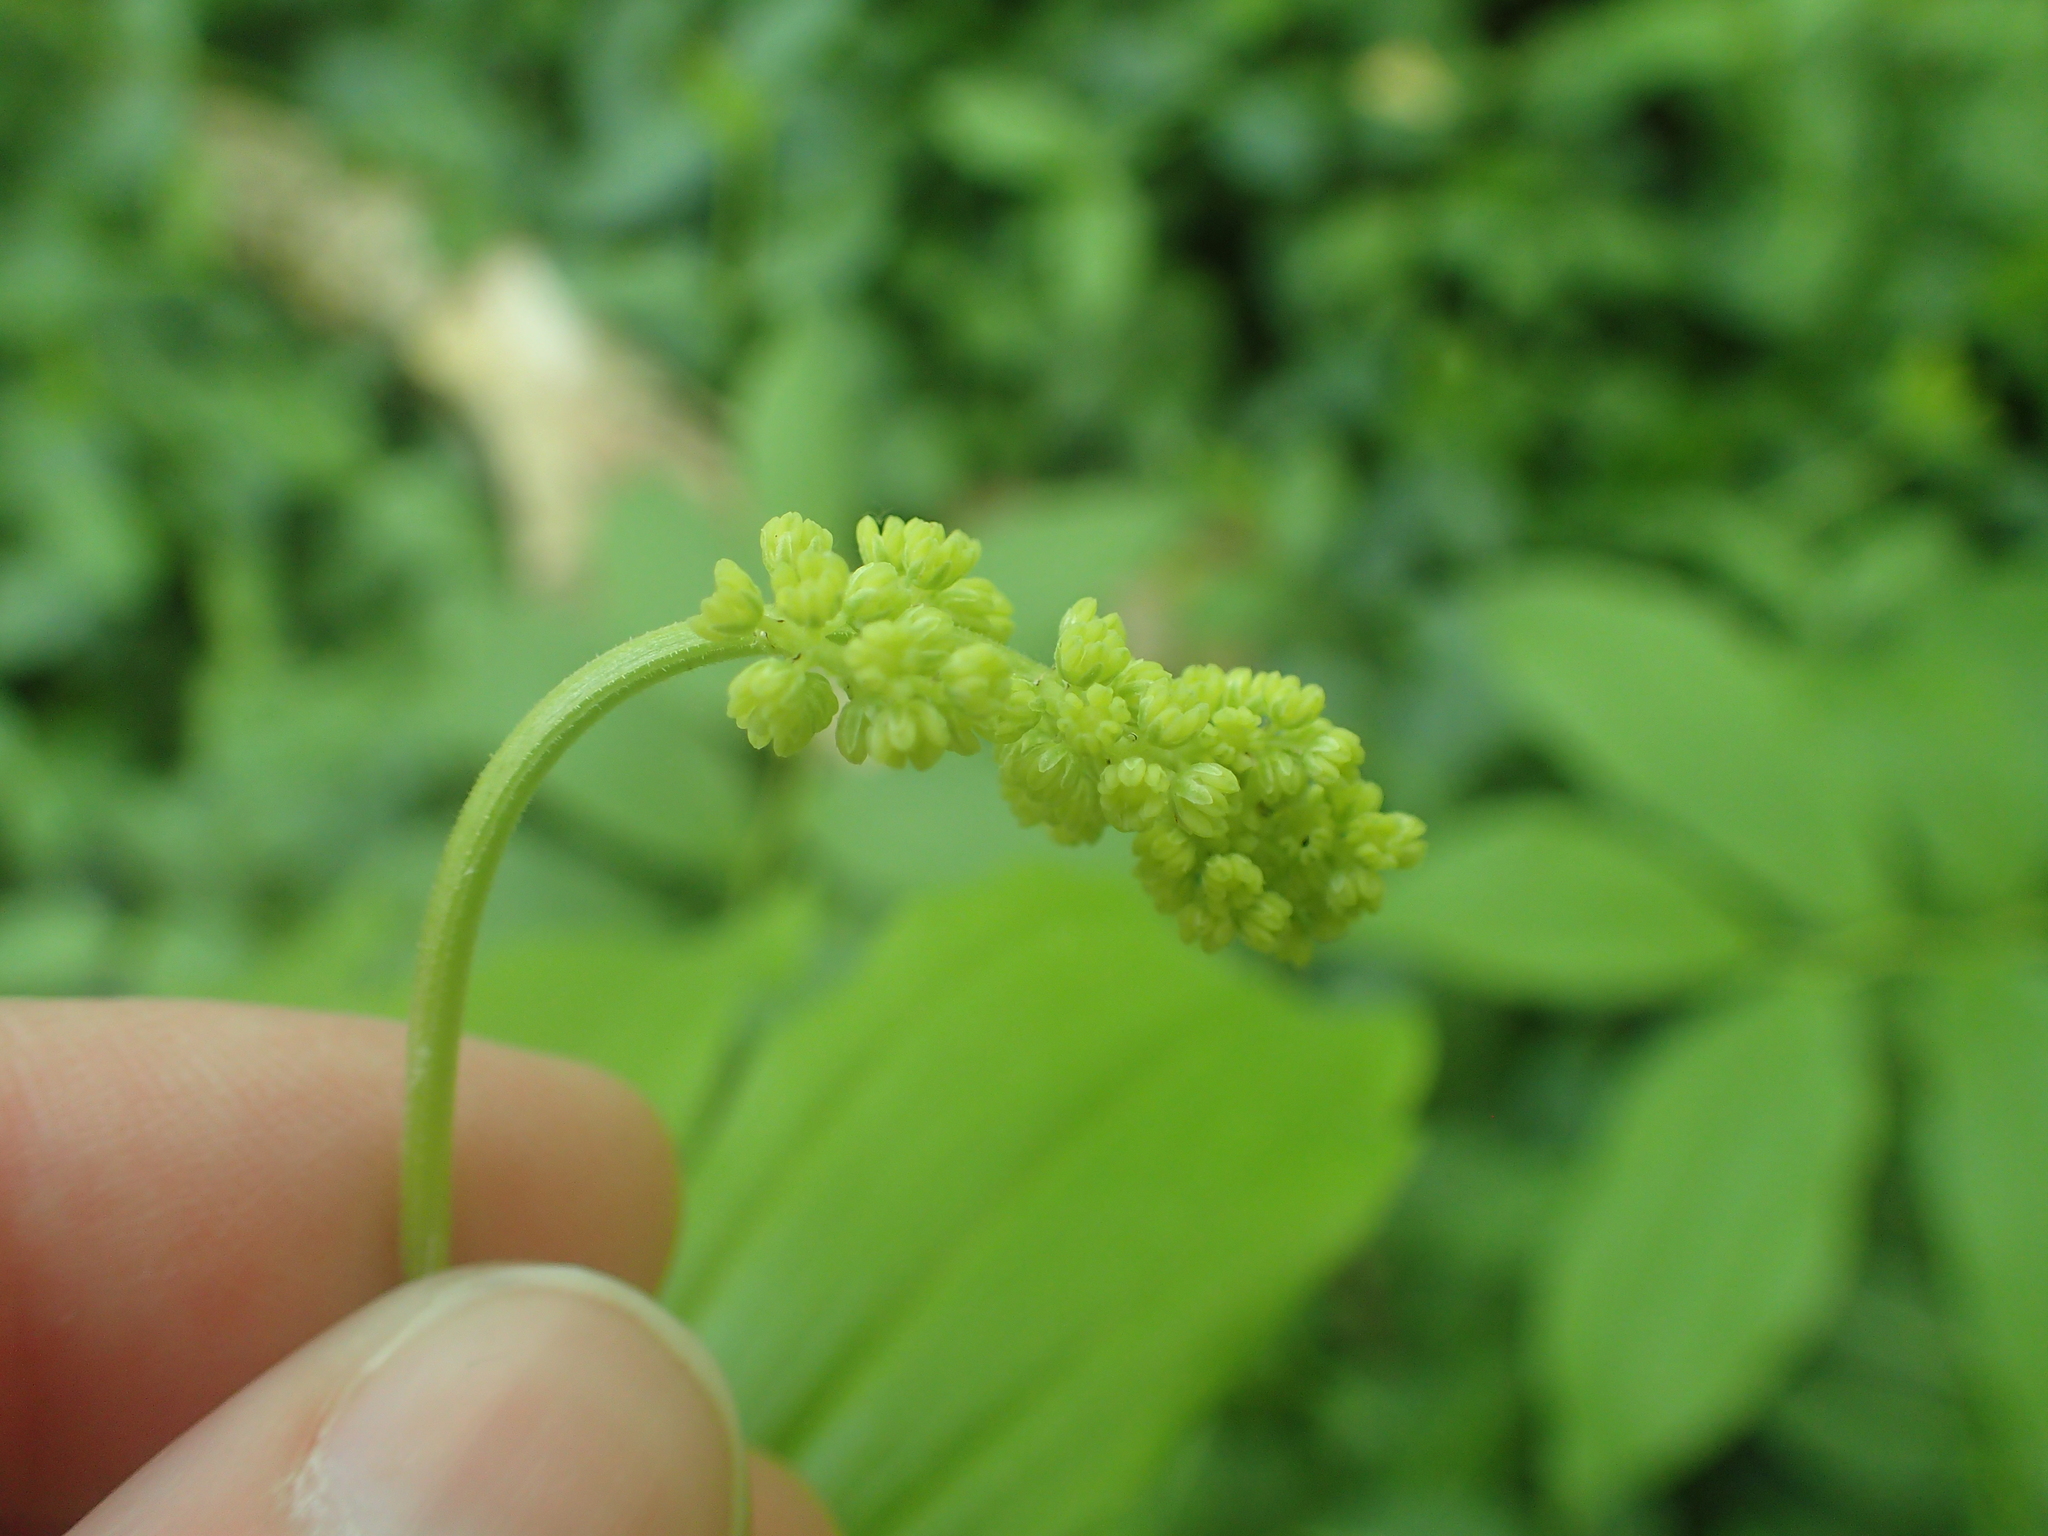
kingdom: Plantae
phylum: Tracheophyta
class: Liliopsida
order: Asparagales
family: Asparagaceae
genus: Maianthemum
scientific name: Maianthemum racemosum
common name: False spikenard
